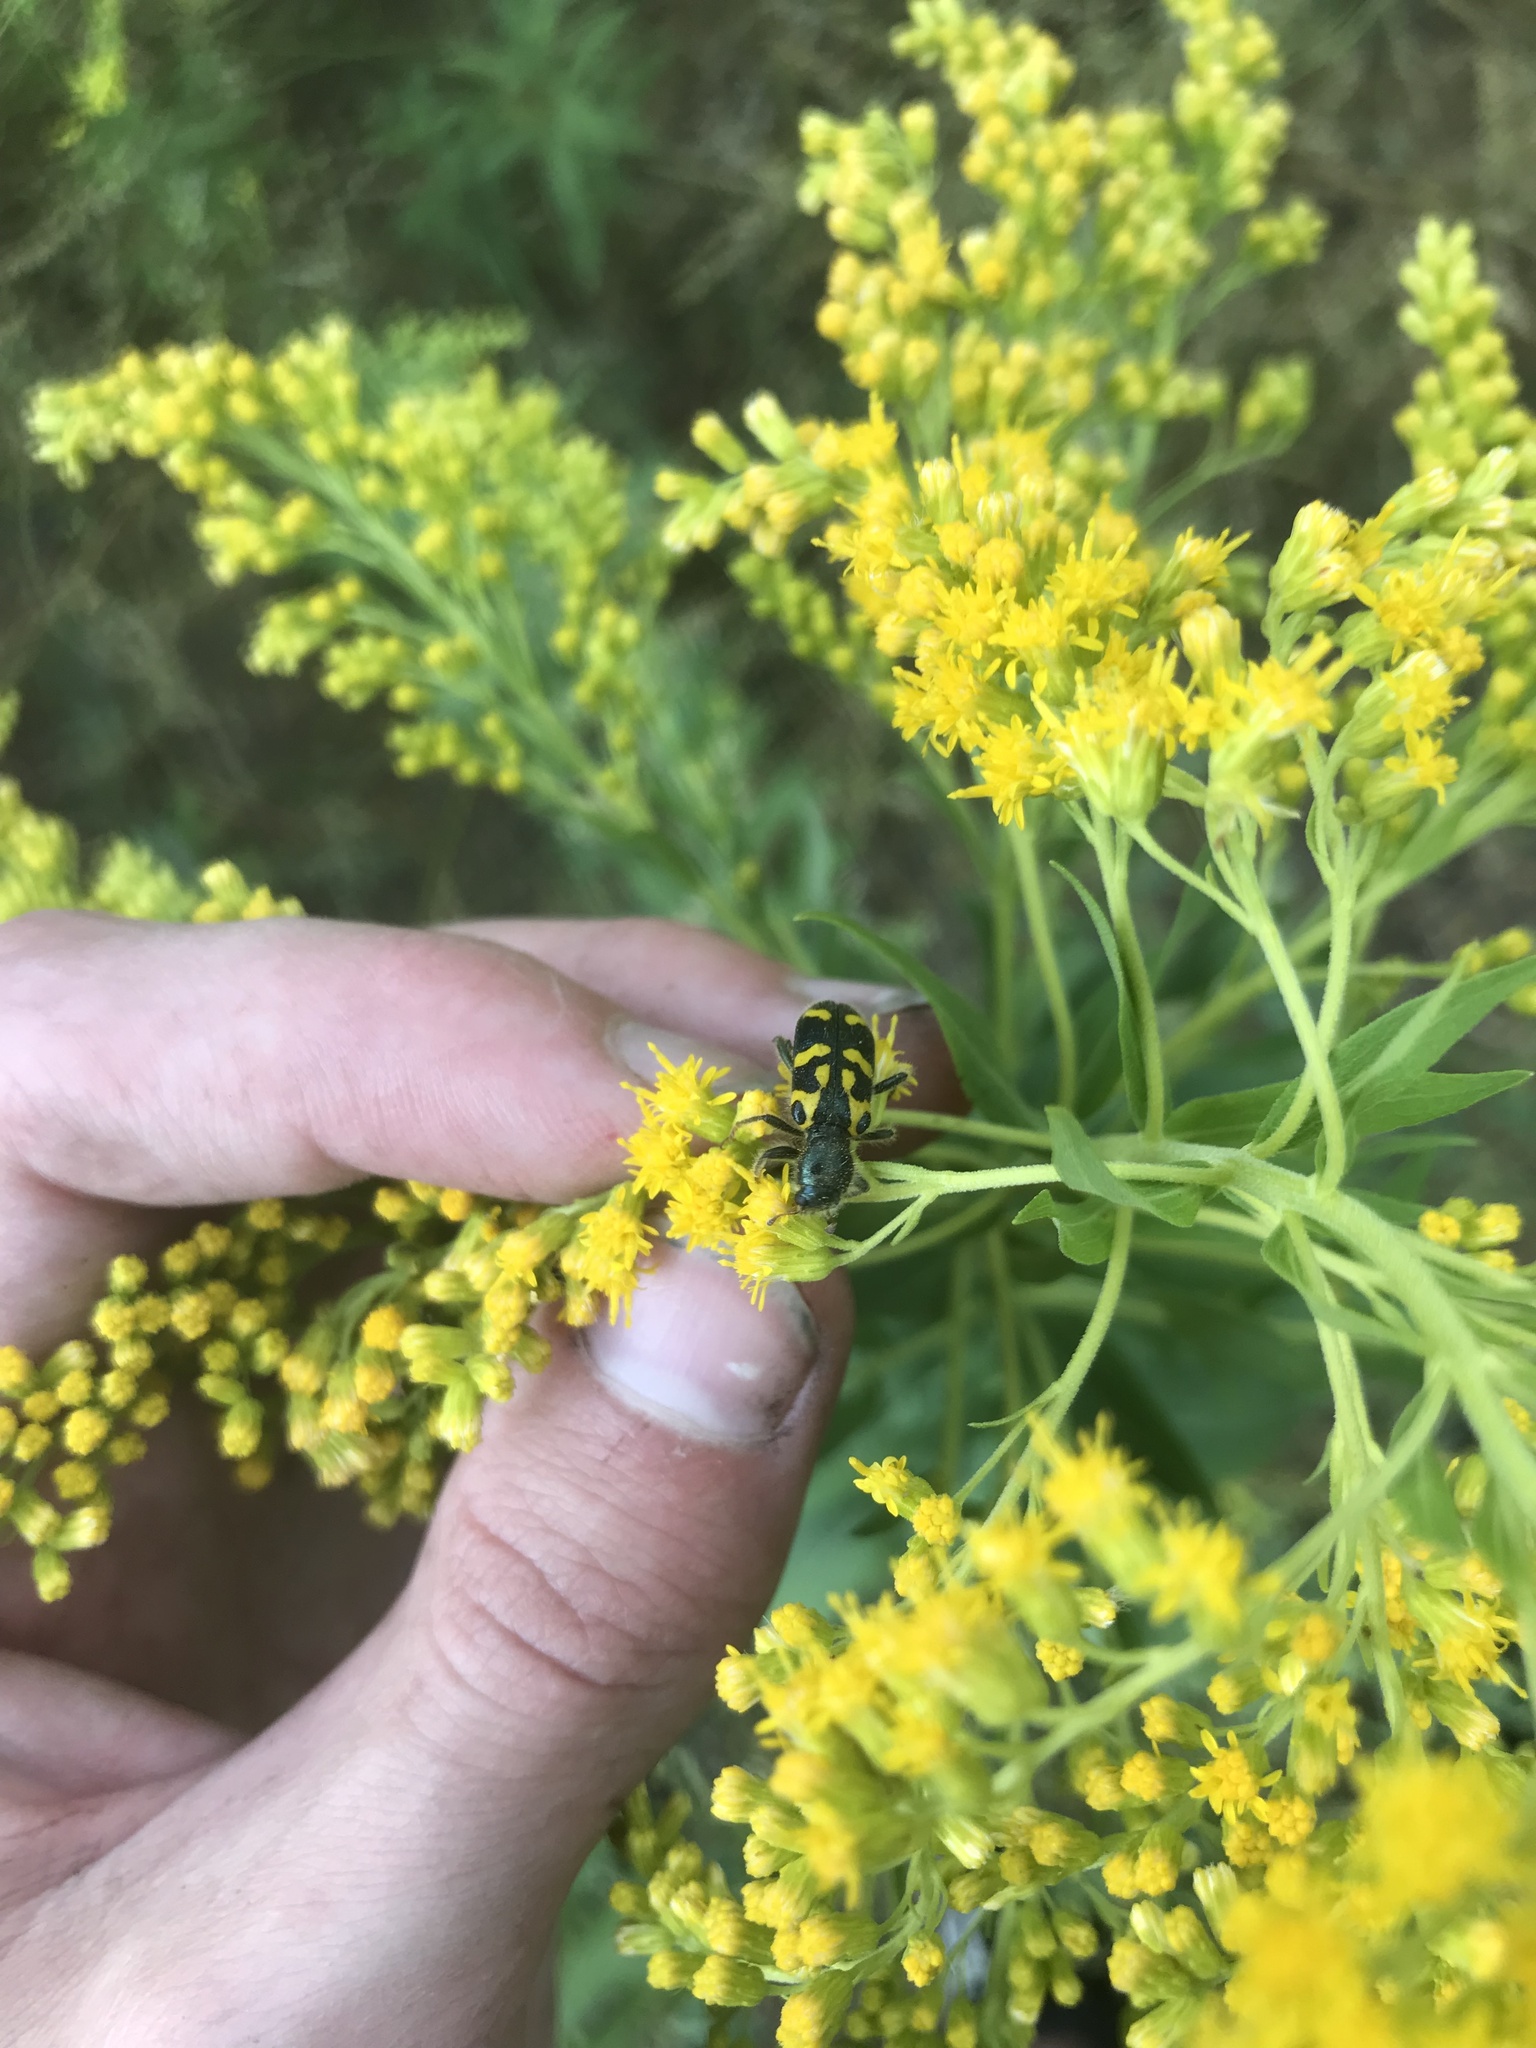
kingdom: Animalia
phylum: Arthropoda
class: Insecta
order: Coleoptera
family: Cleridae
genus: Trichodes
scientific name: Trichodes ornatus
